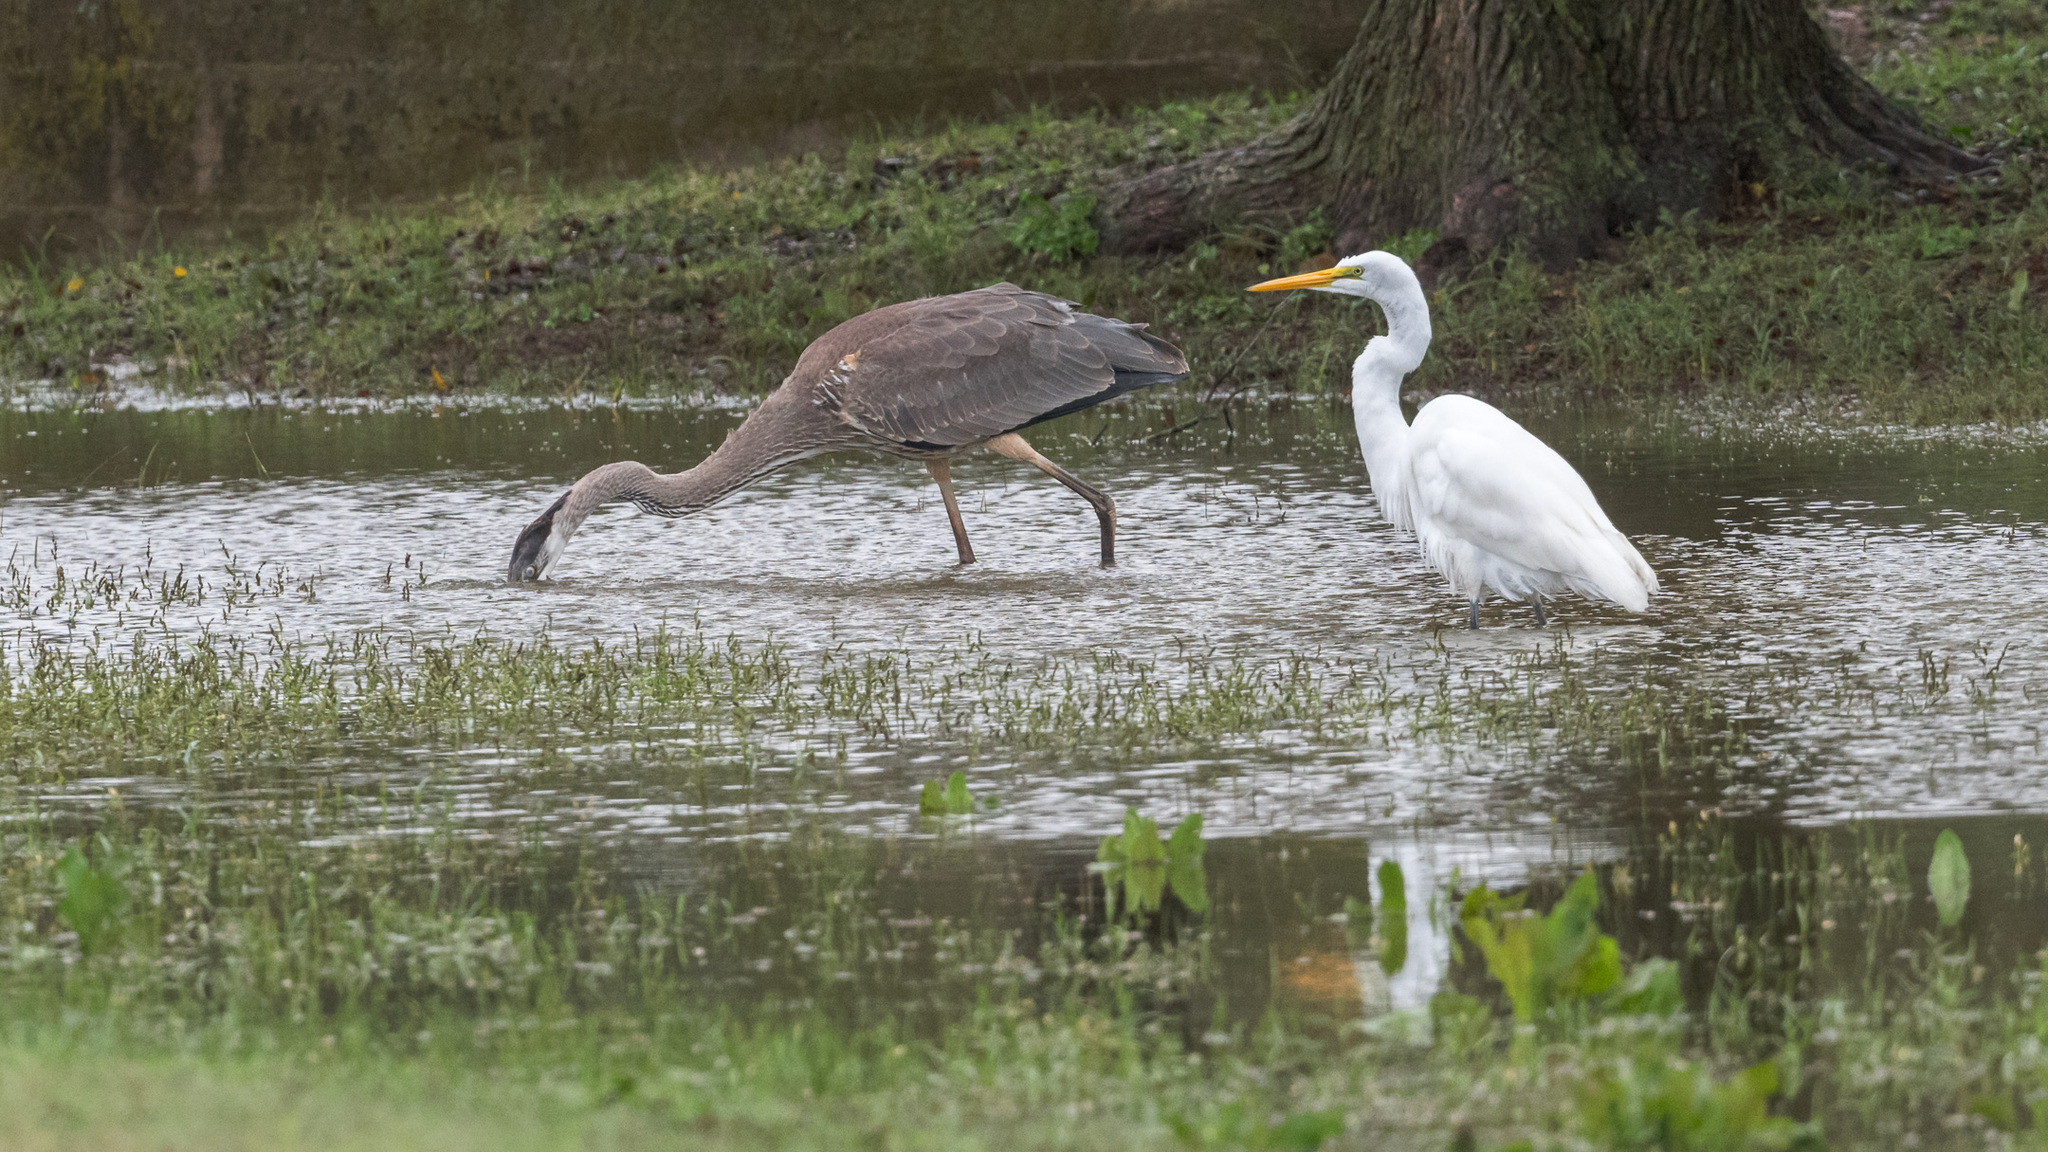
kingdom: Animalia
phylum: Chordata
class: Aves
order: Pelecaniformes
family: Ardeidae
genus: Ardea
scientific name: Ardea herodias
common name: Great blue heron
